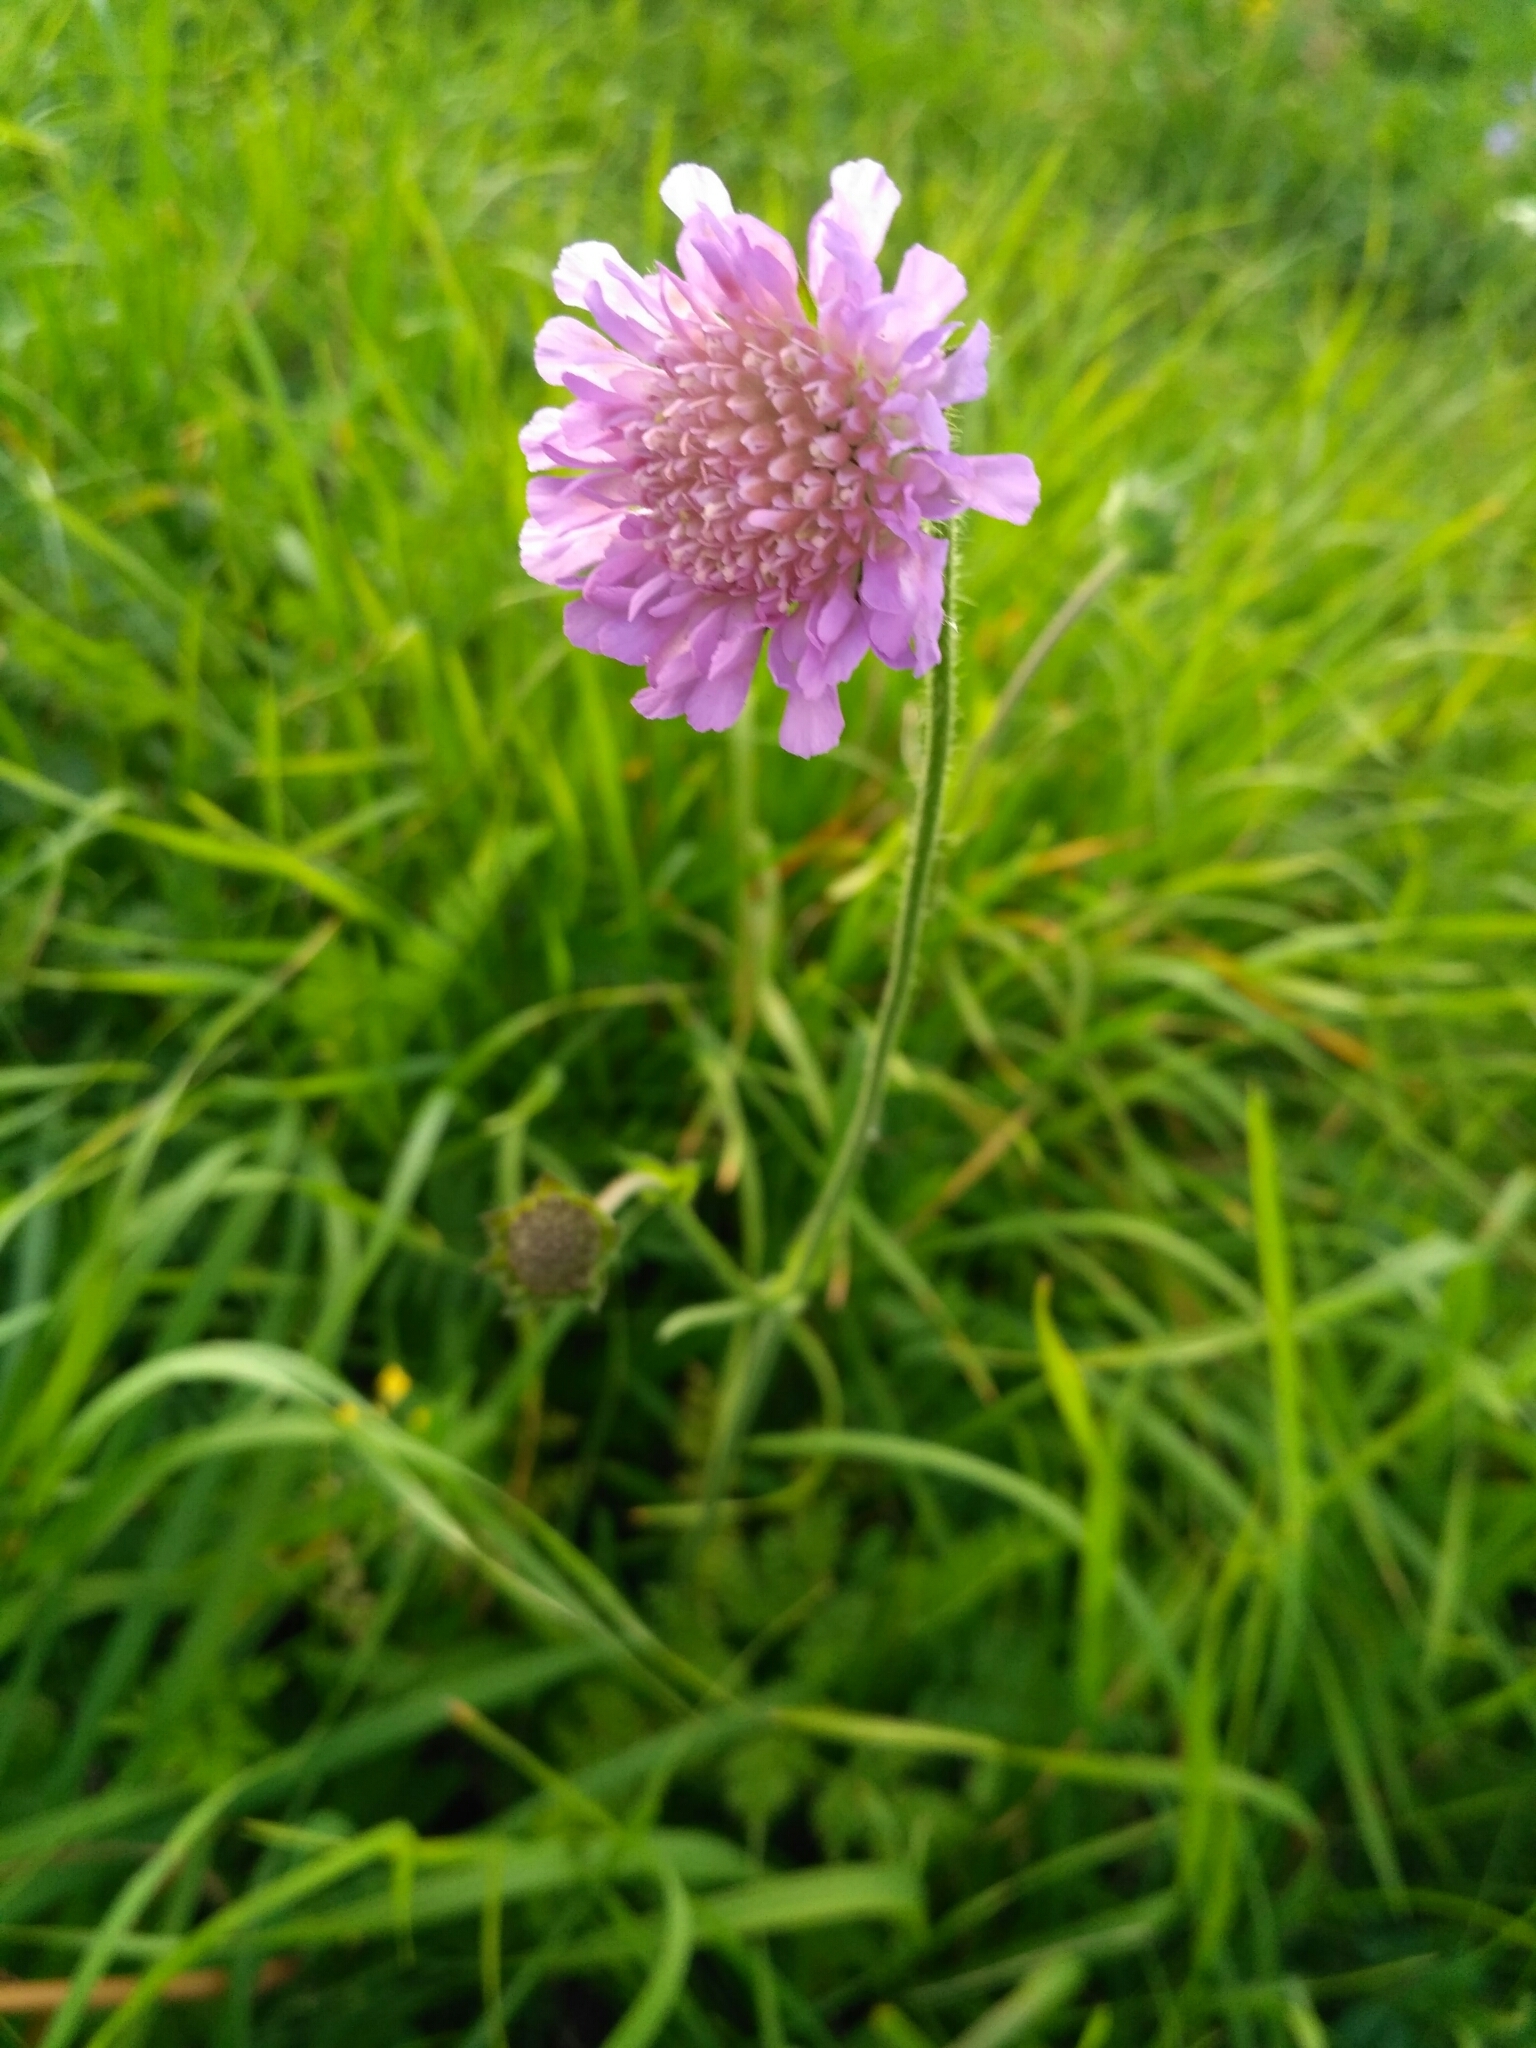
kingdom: Plantae
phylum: Tracheophyta
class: Magnoliopsida
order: Dipsacales
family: Caprifoliaceae
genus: Knautia
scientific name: Knautia arvensis
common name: Field scabiosa
